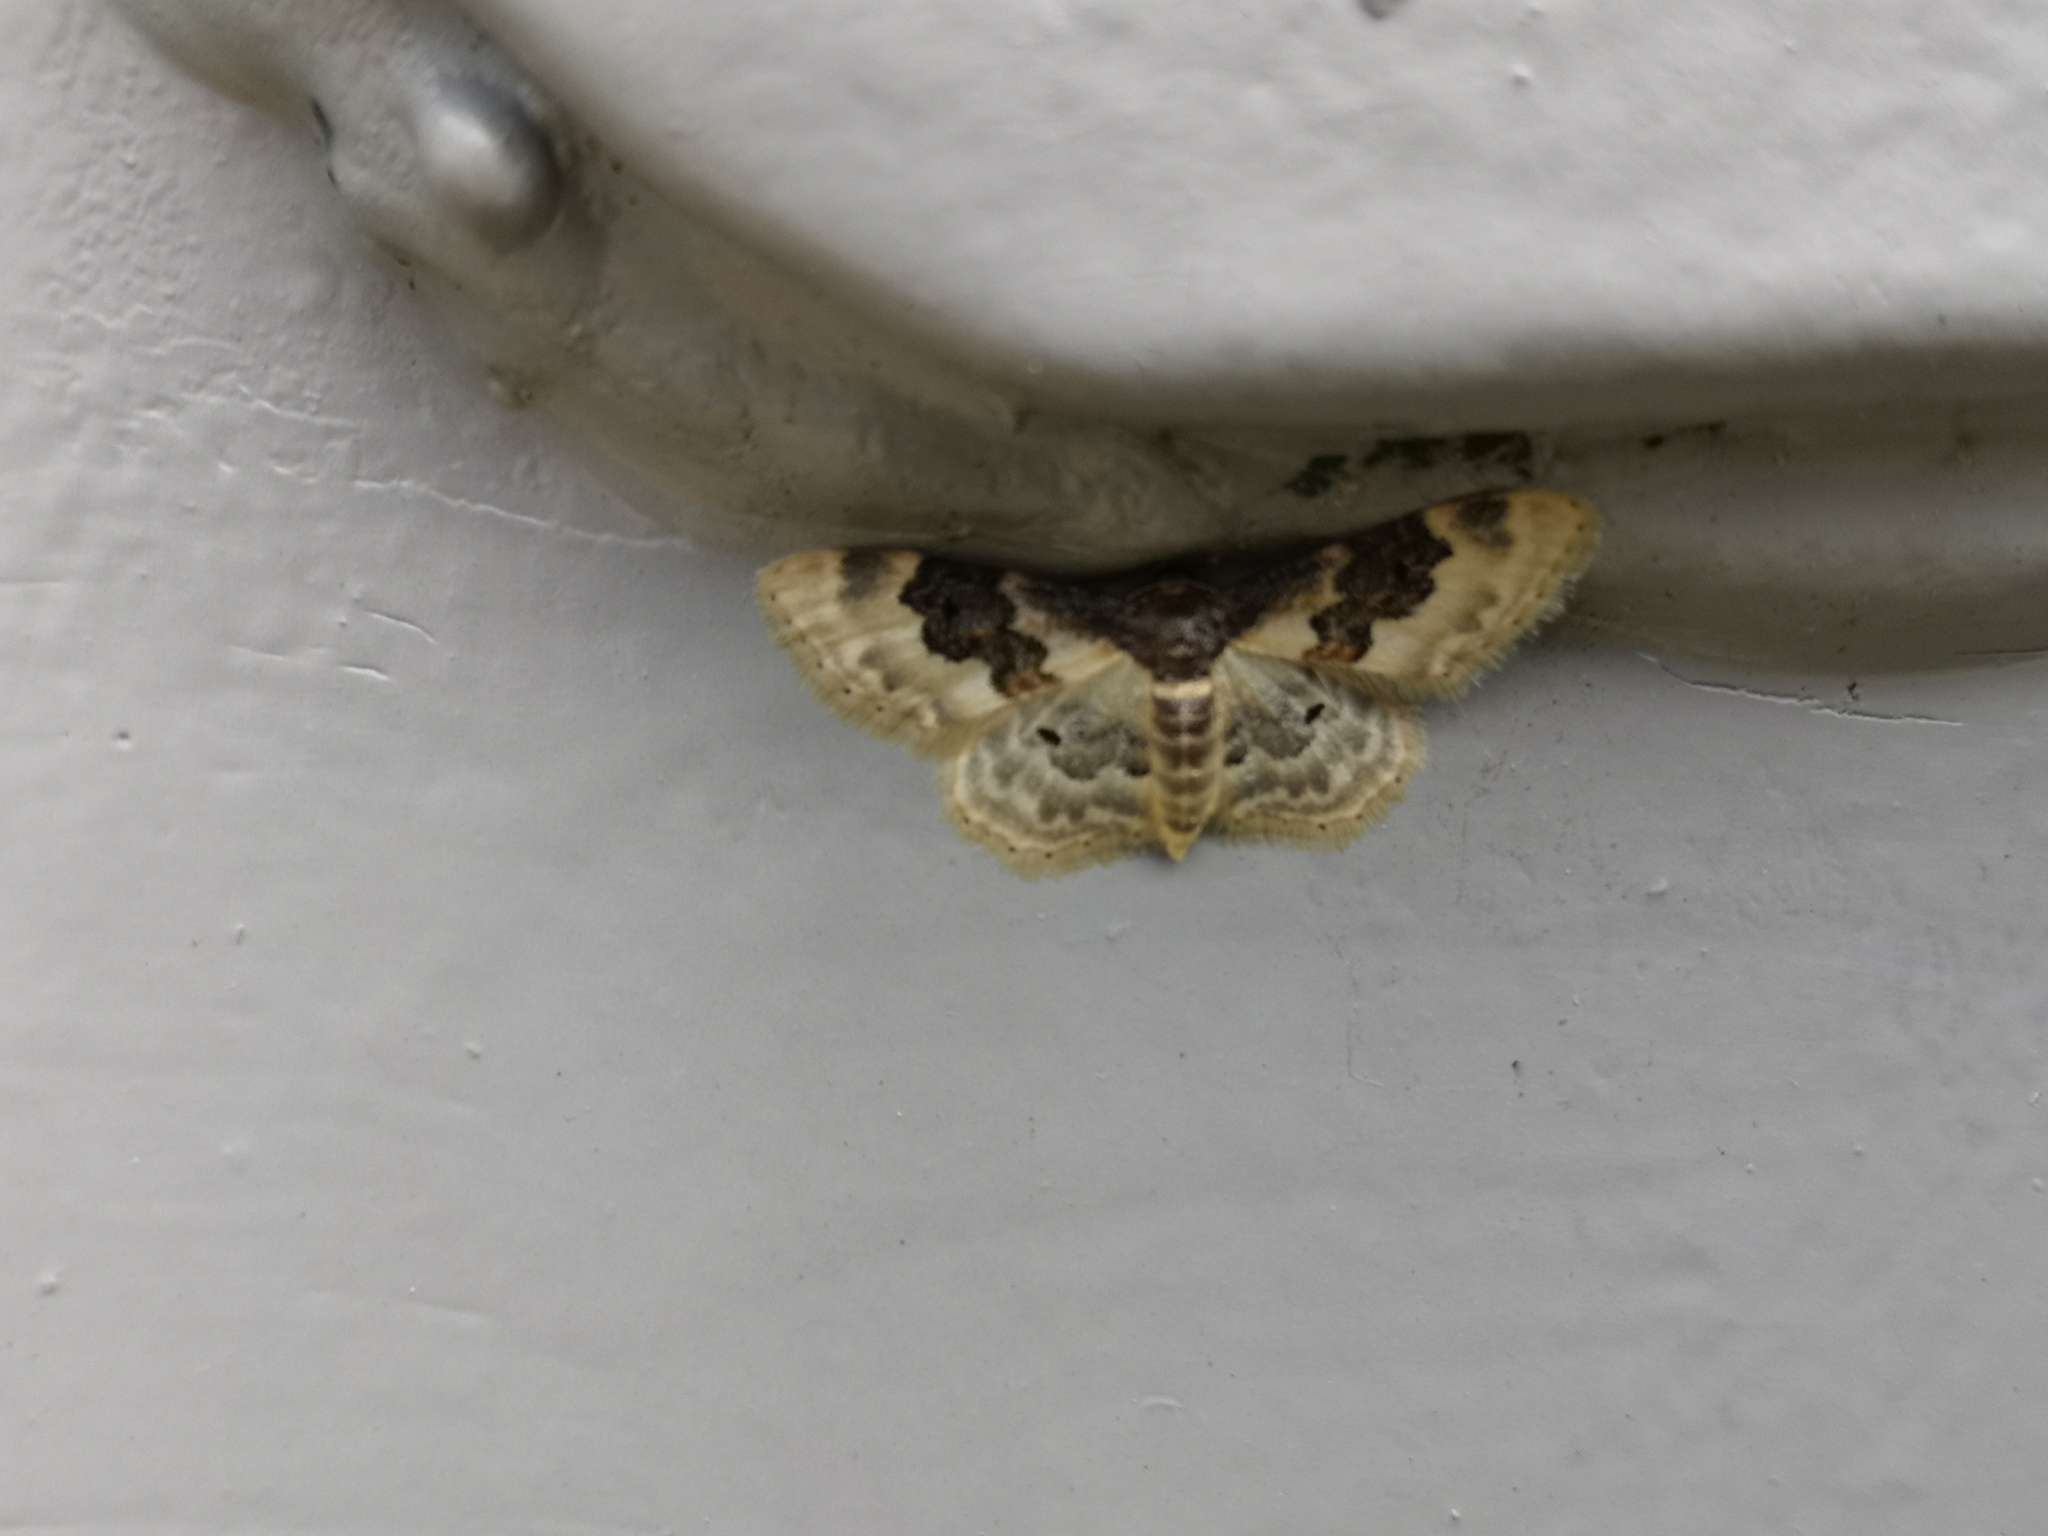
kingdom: Animalia
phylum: Arthropoda
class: Insecta
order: Lepidoptera
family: Geometridae
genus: Idaea
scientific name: Idaea rusticata
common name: Least carpet
